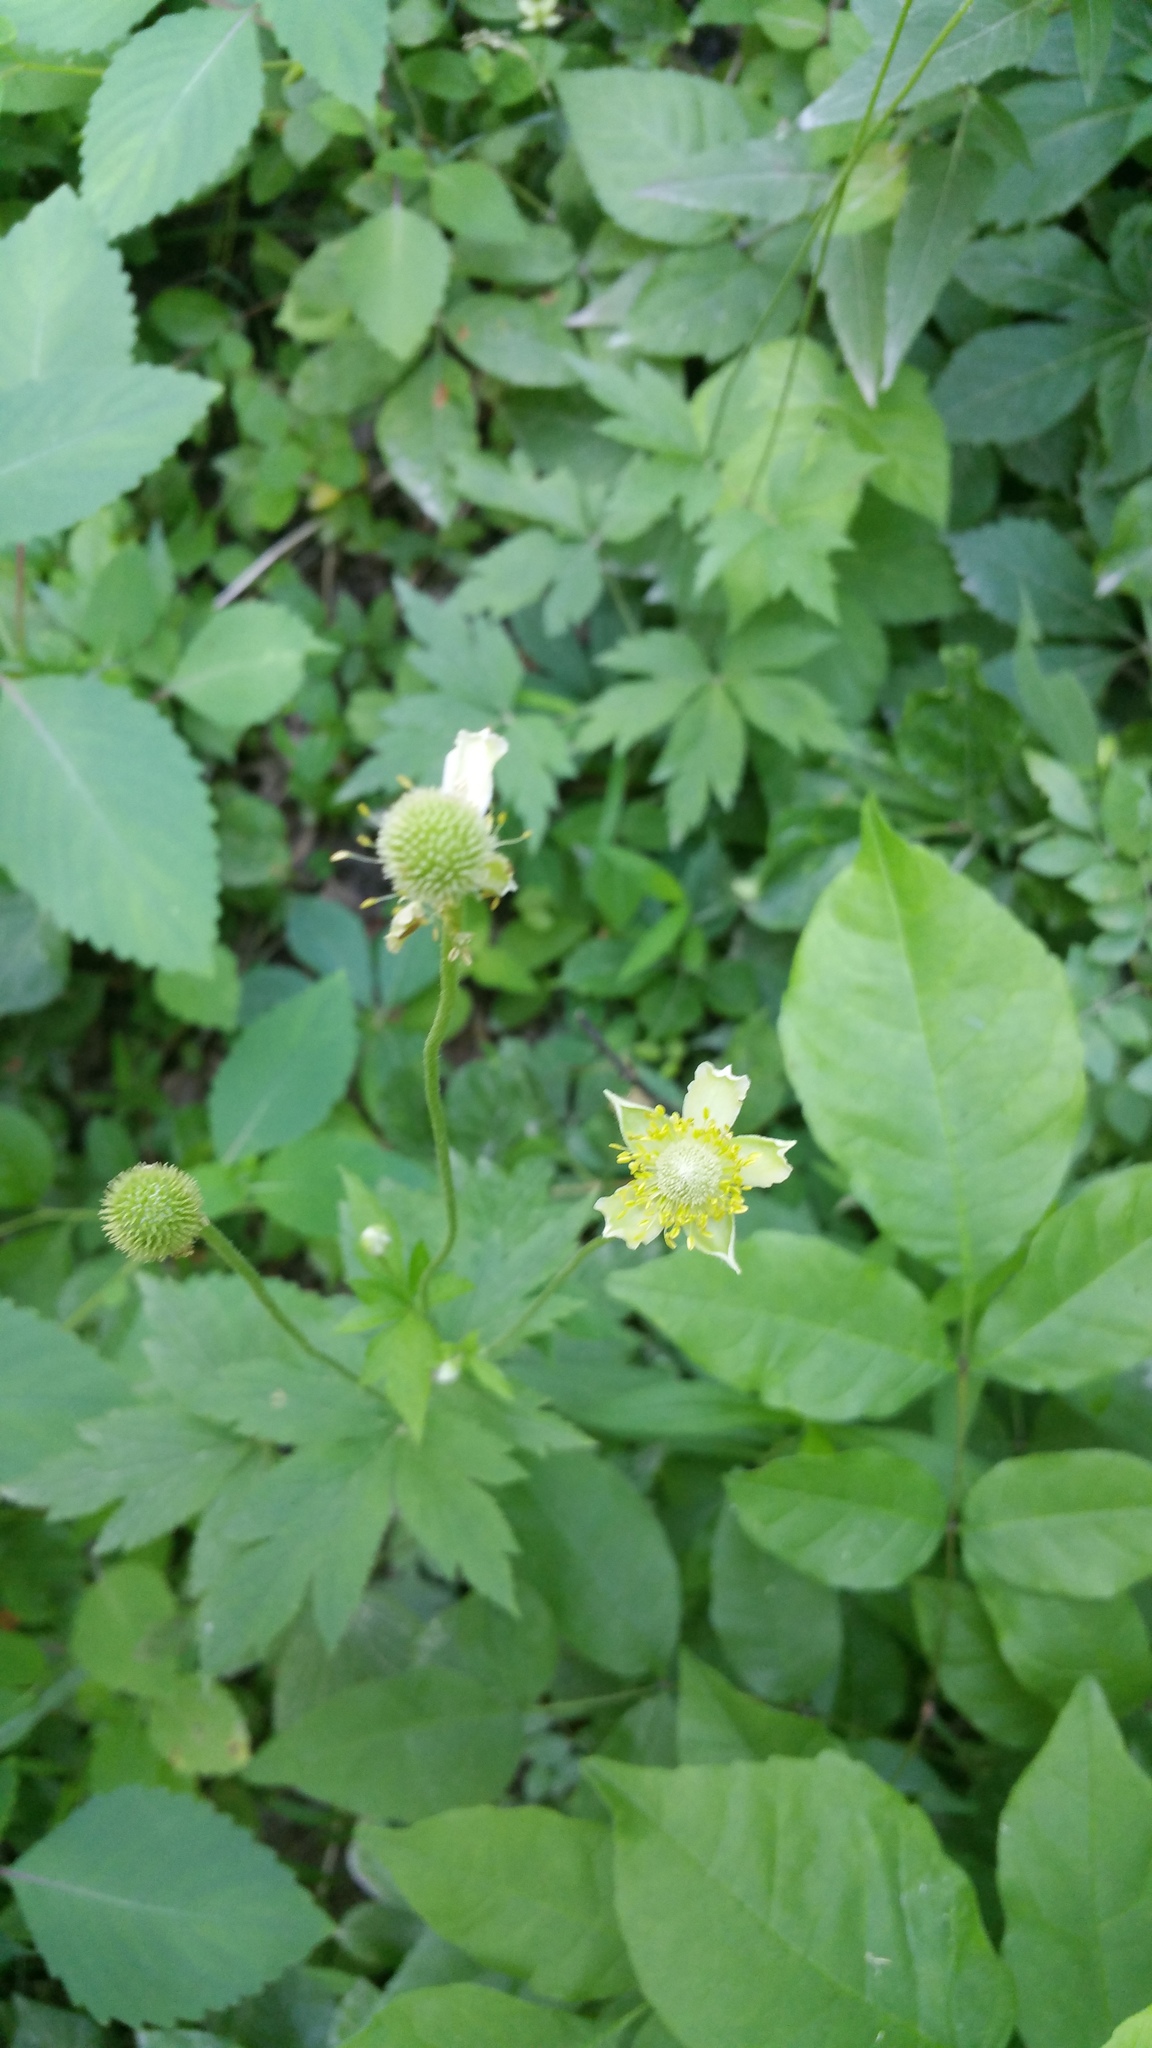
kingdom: Plantae
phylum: Tracheophyta
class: Magnoliopsida
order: Ranunculales
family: Ranunculaceae
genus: Anemone
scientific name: Anemone virginiana
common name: Tall anemone
